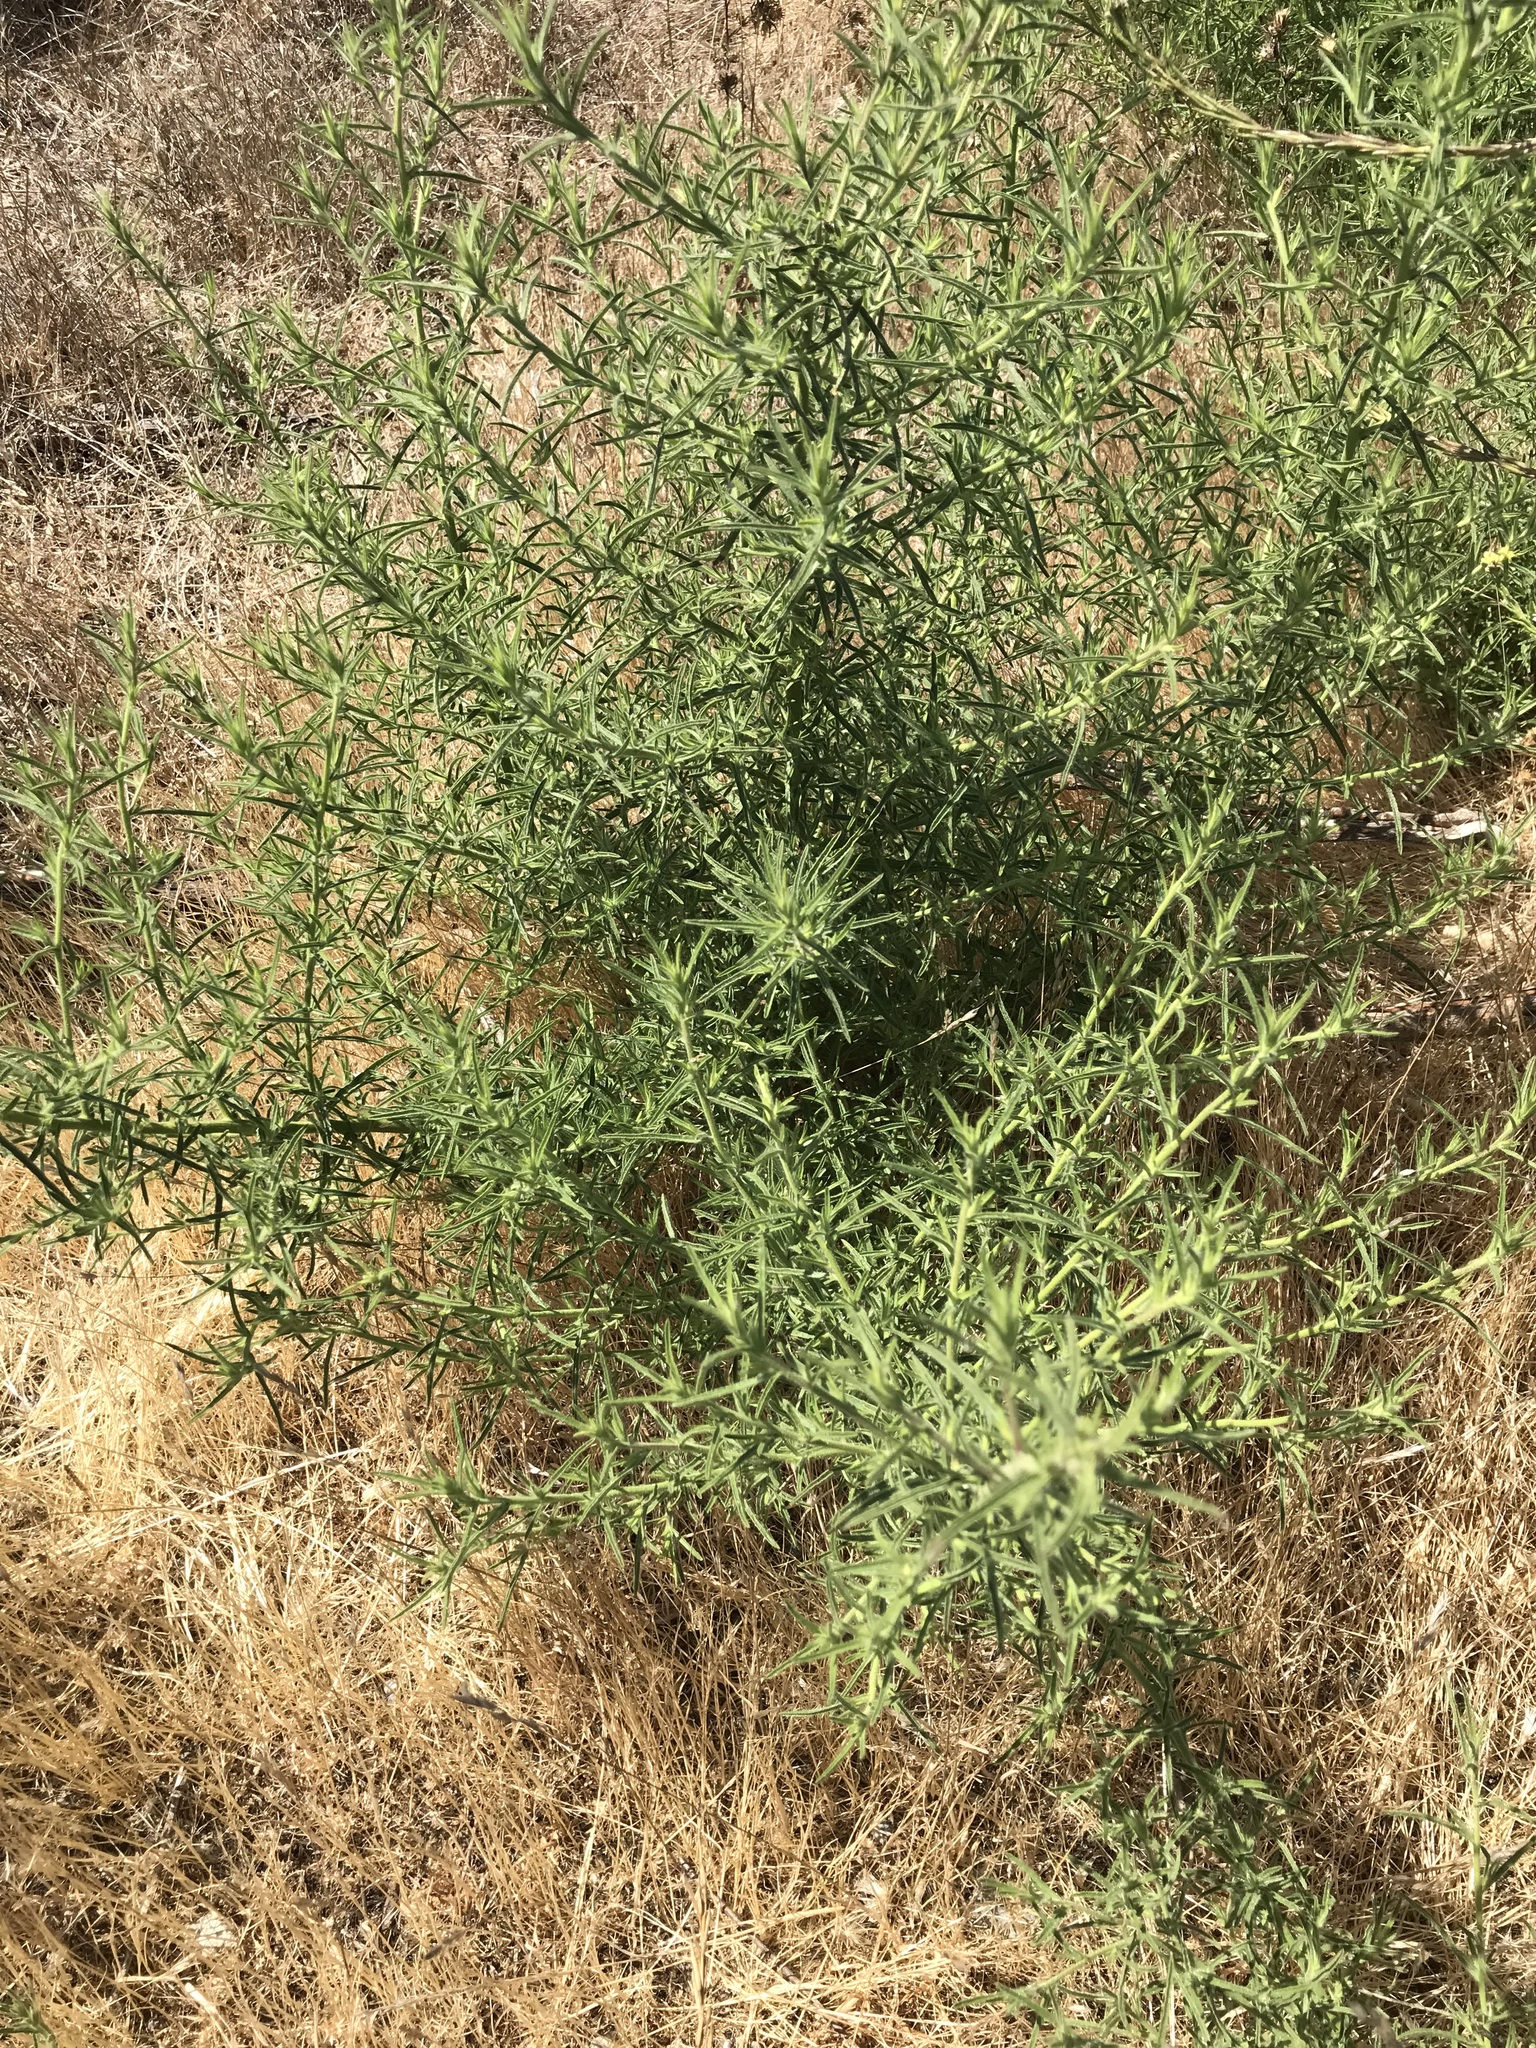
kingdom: Plantae
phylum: Tracheophyta
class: Magnoliopsida
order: Asterales
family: Asteraceae
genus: Dittrichia
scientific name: Dittrichia graveolens
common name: Stinking fleabane
